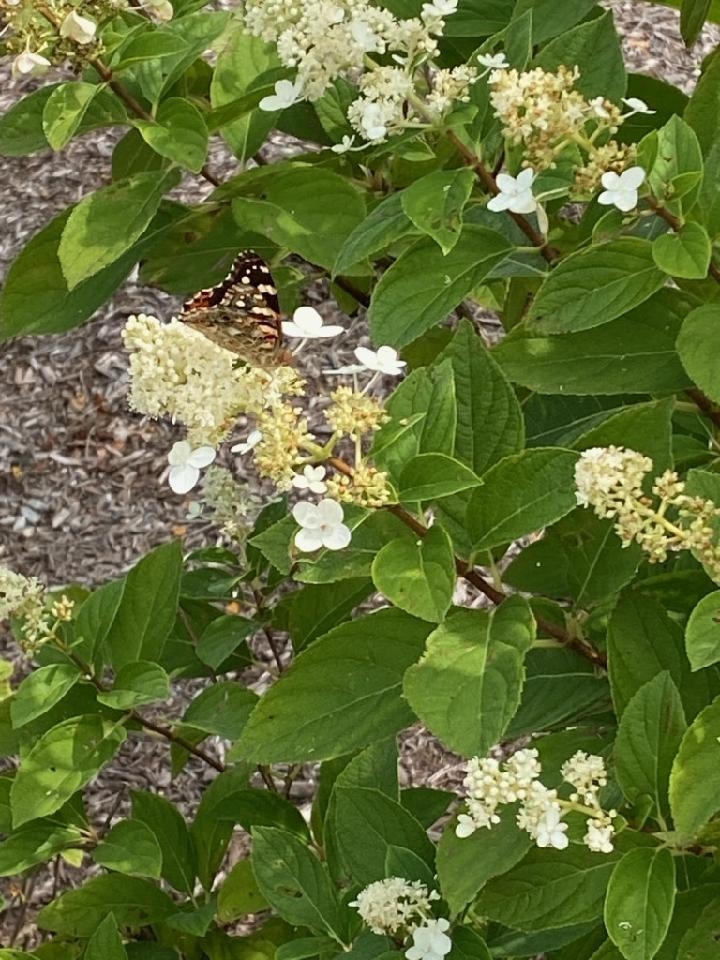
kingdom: Animalia
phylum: Arthropoda
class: Insecta
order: Lepidoptera
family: Nymphalidae
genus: Vanessa
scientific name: Vanessa cardui
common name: Painted lady
